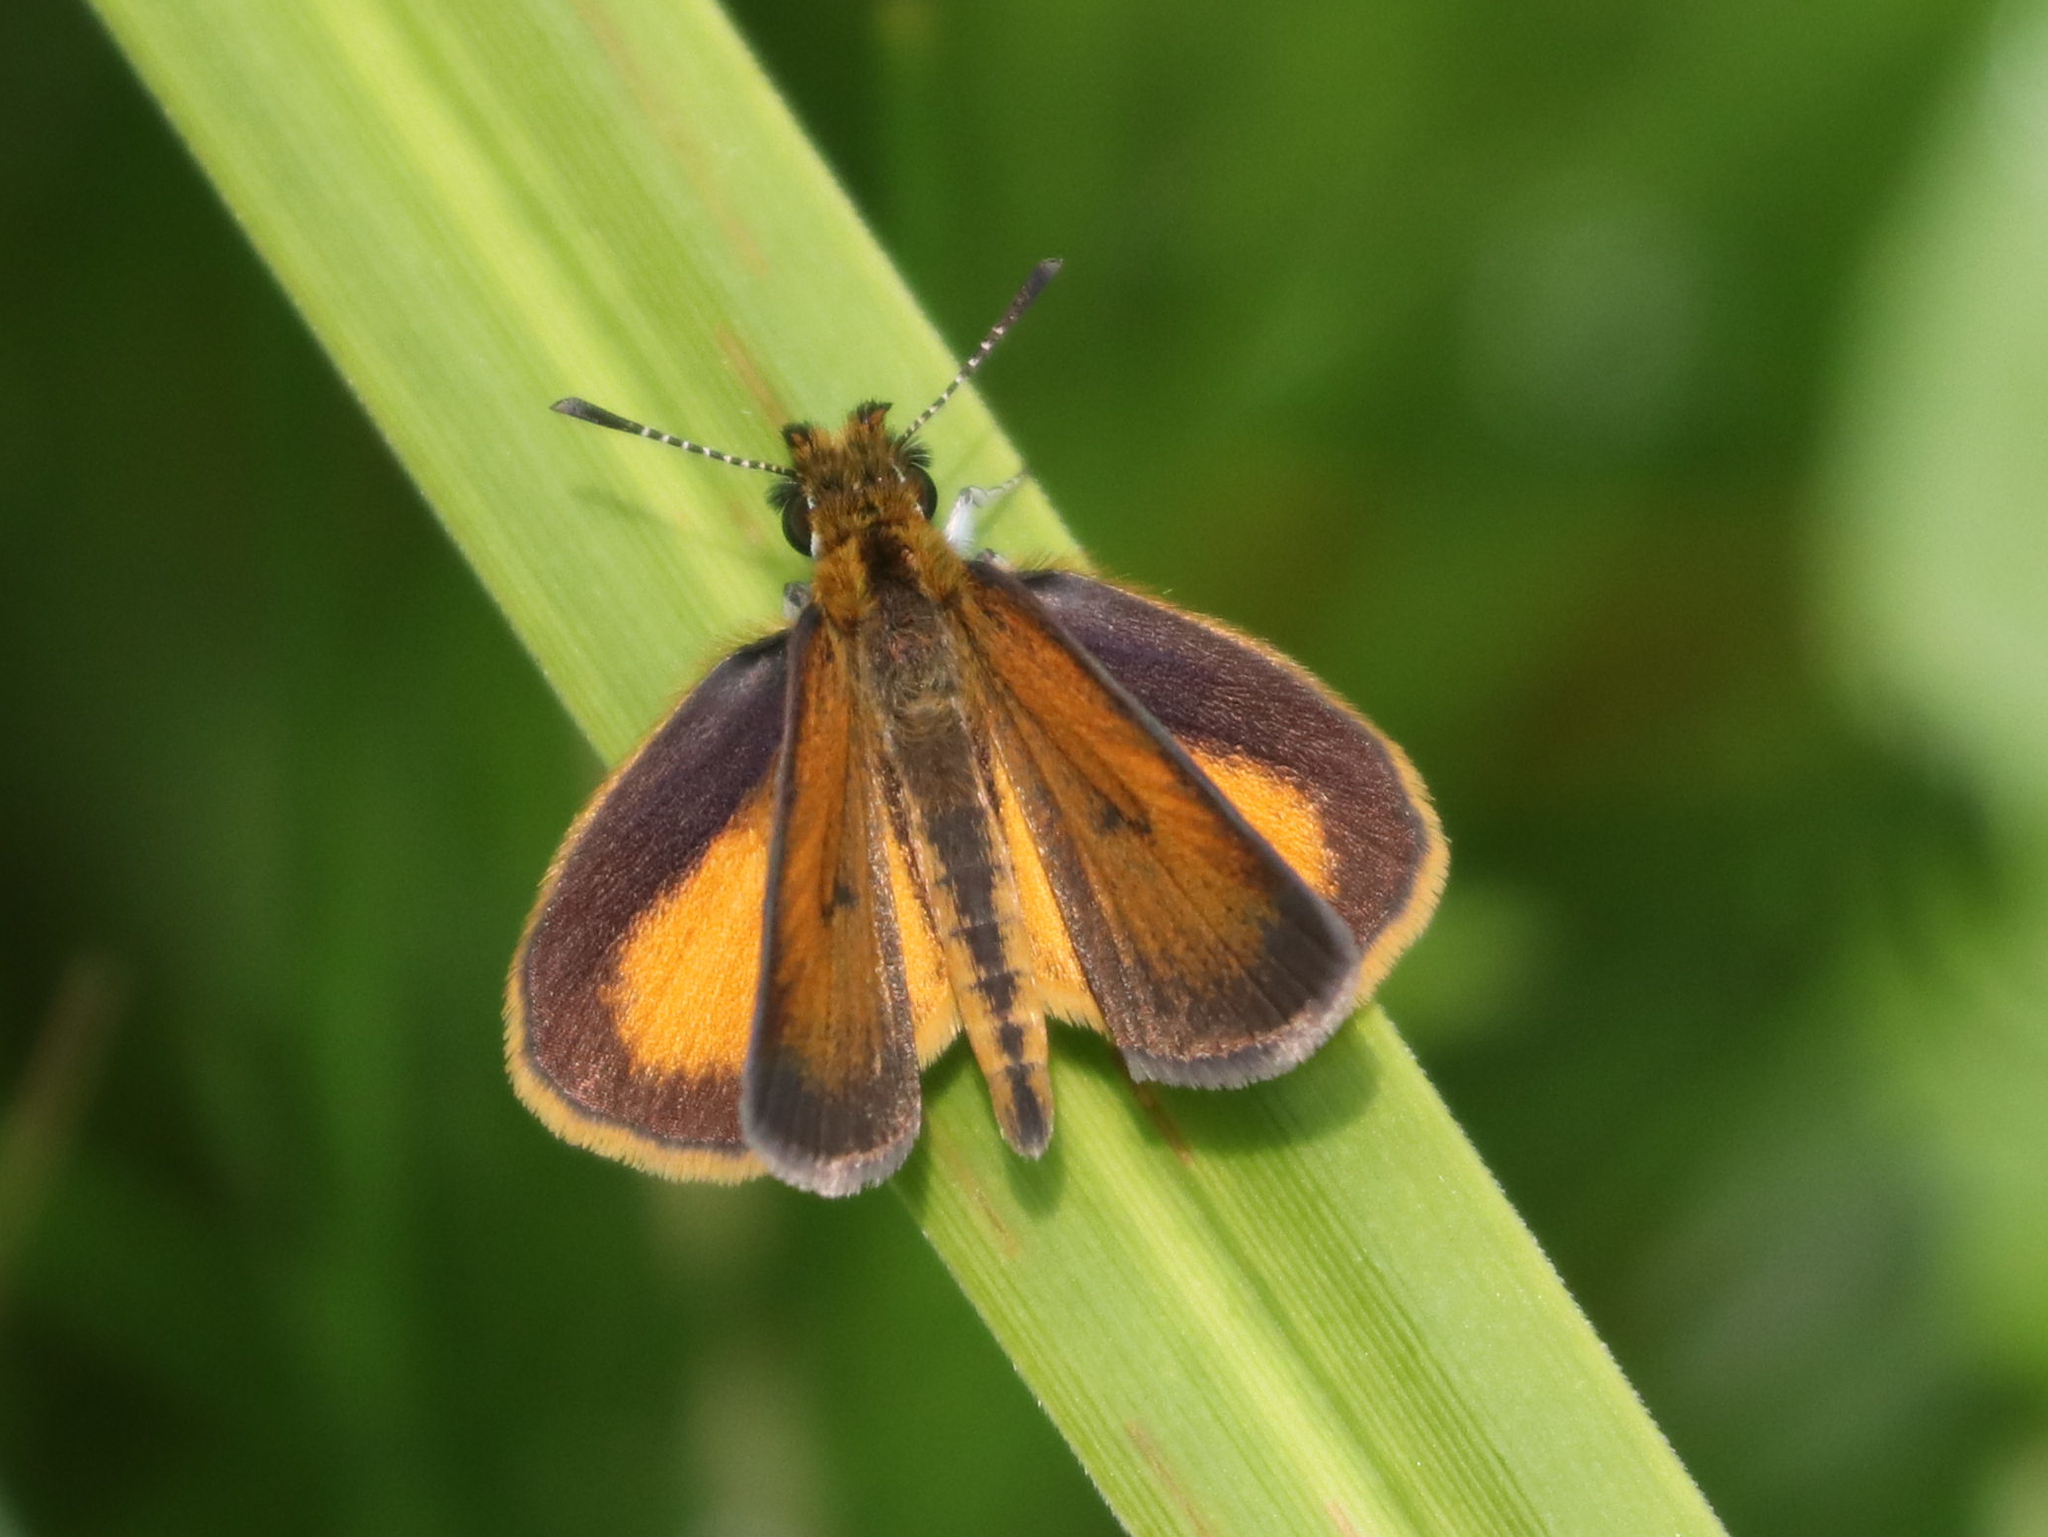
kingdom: Animalia
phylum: Arthropoda
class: Insecta
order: Lepidoptera
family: Hesperiidae
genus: Ancyloxypha
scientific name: Ancyloxypha numitor
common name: Least skipper
